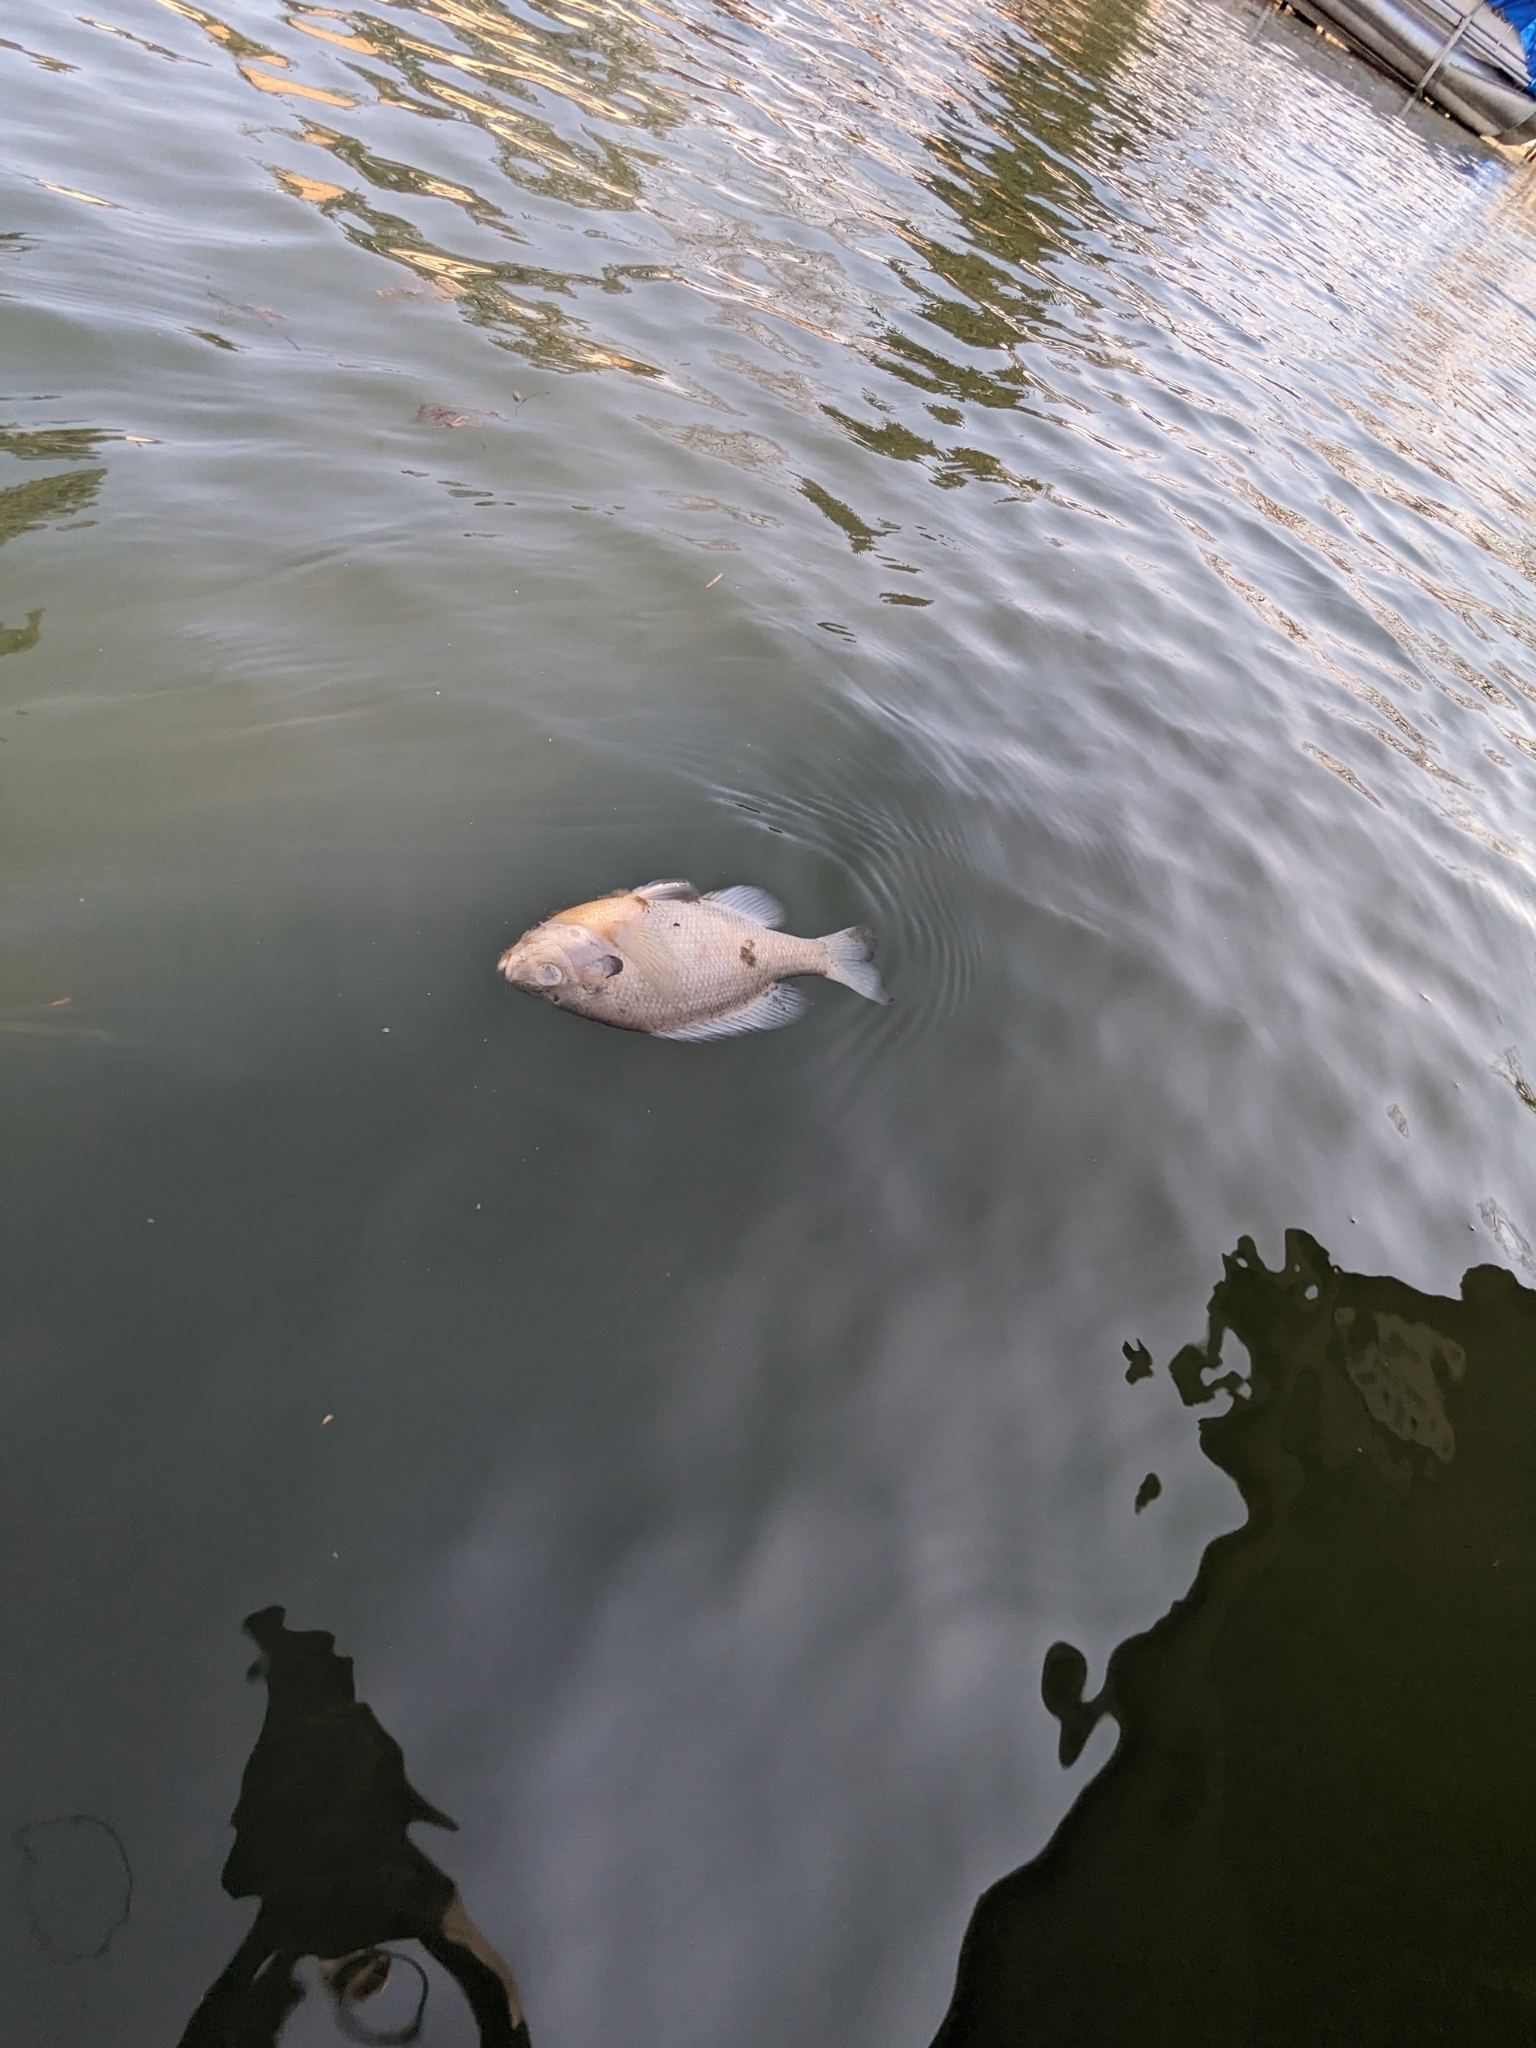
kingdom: Animalia
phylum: Chordata
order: Perciformes
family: Centrarchidae
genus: Lepomis
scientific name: Lepomis macrochirus
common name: Bluegill
